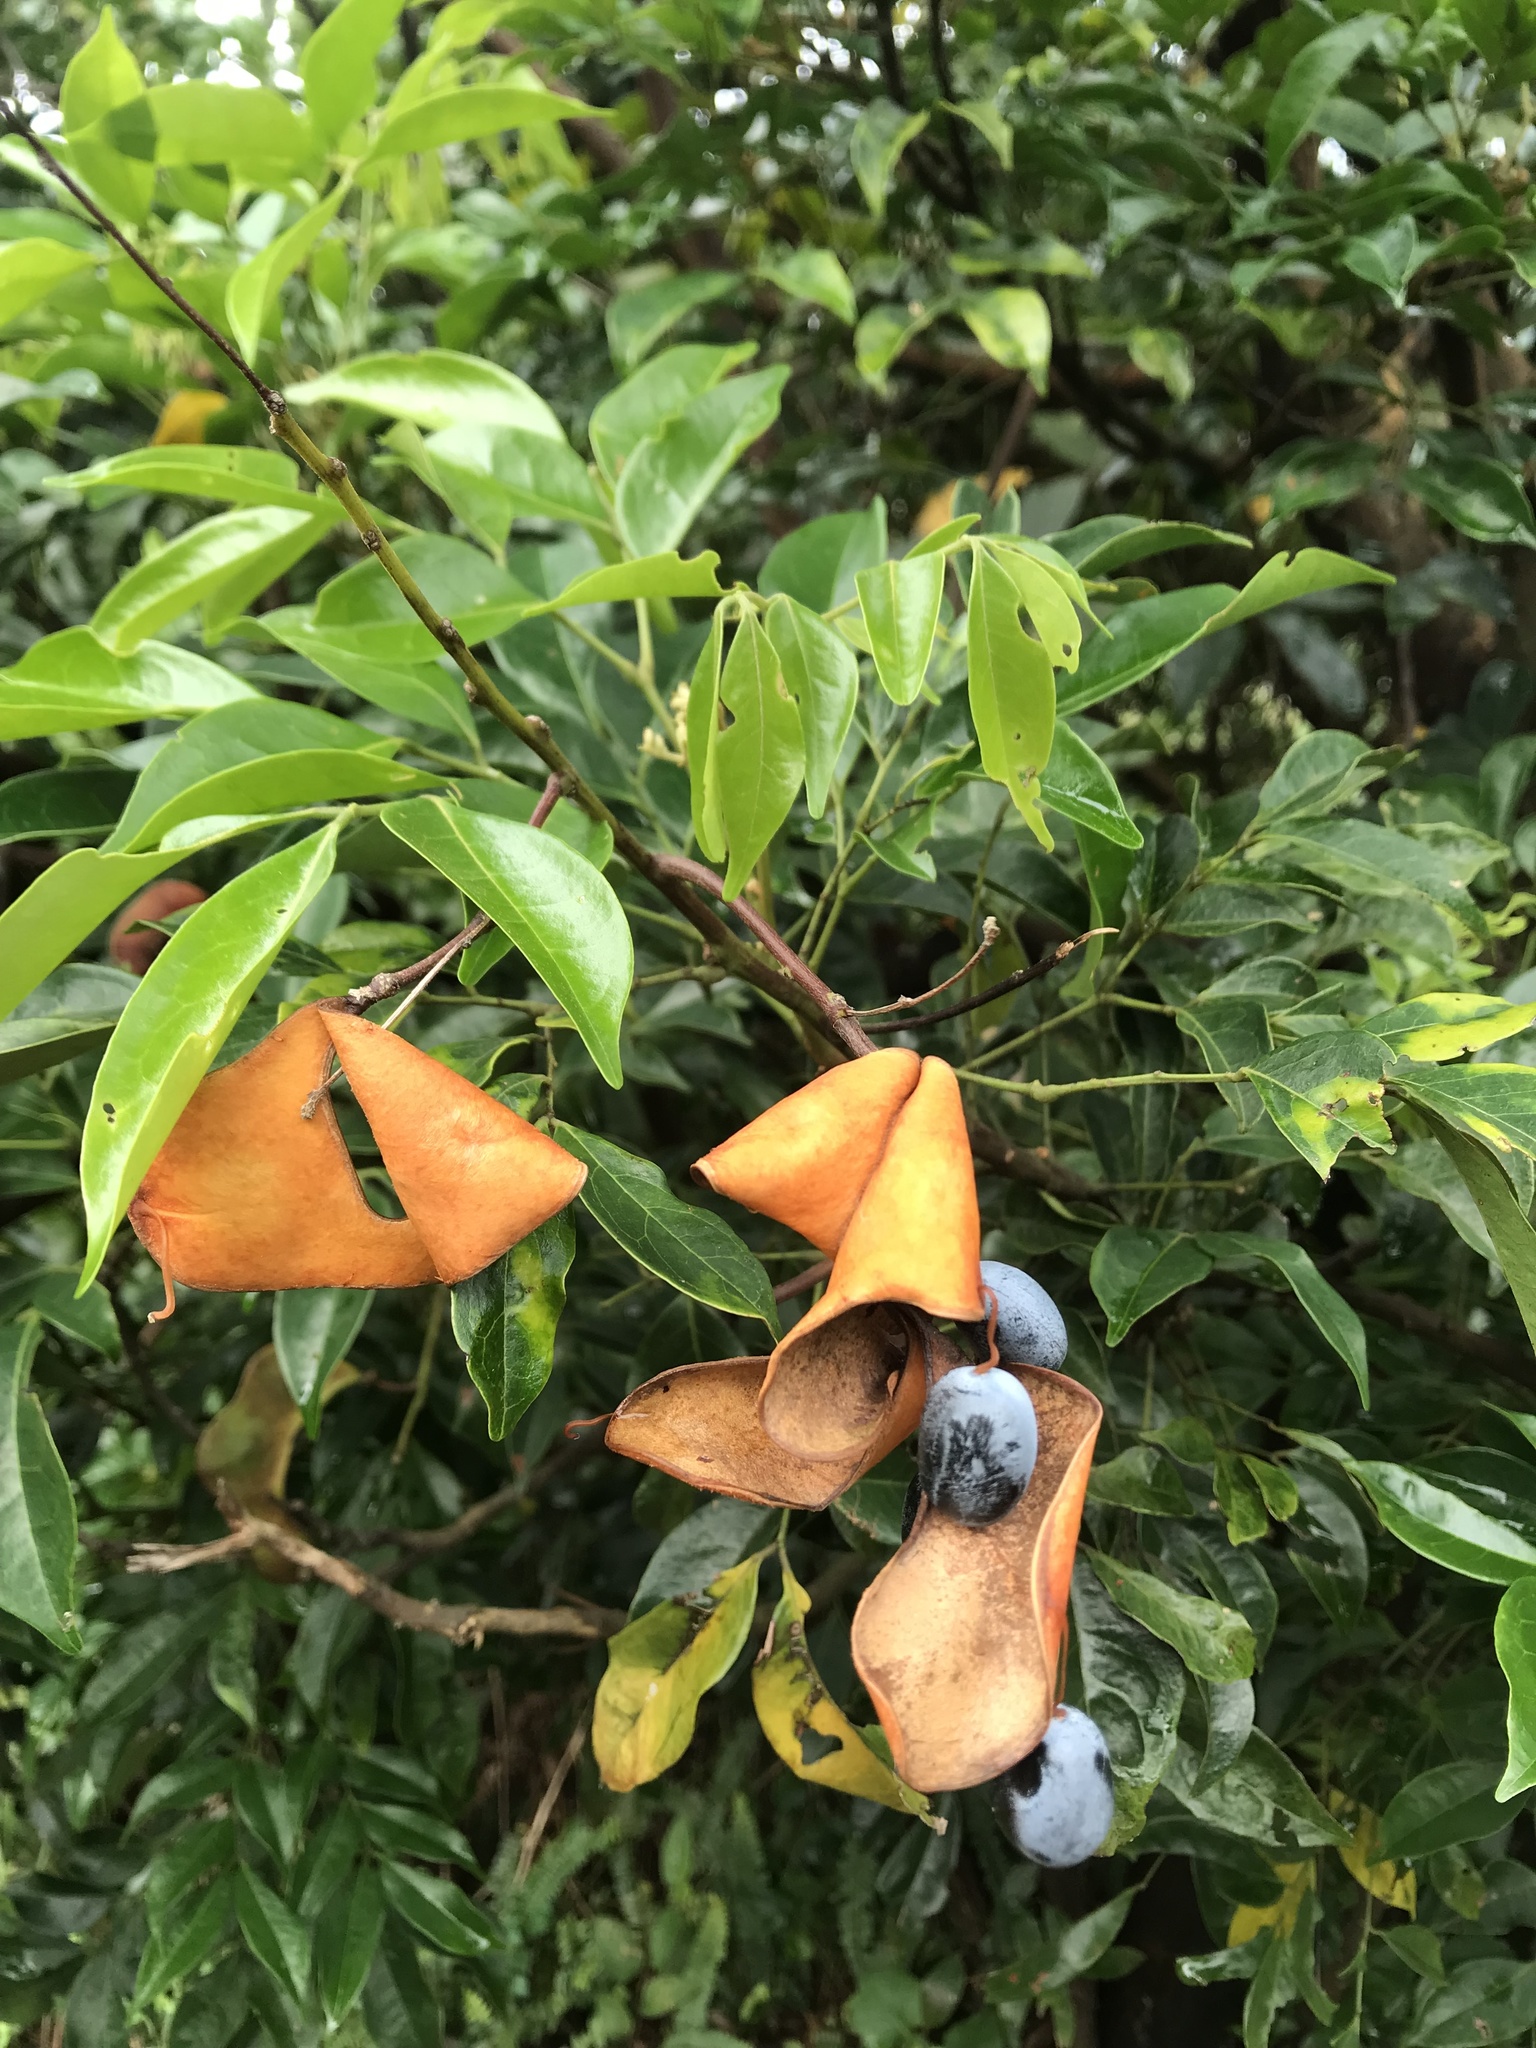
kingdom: Plantae
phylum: Tracheophyta
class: Magnoliopsida
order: Fabales
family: Fabaceae
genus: Archidendron
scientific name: Archidendron lucidum
